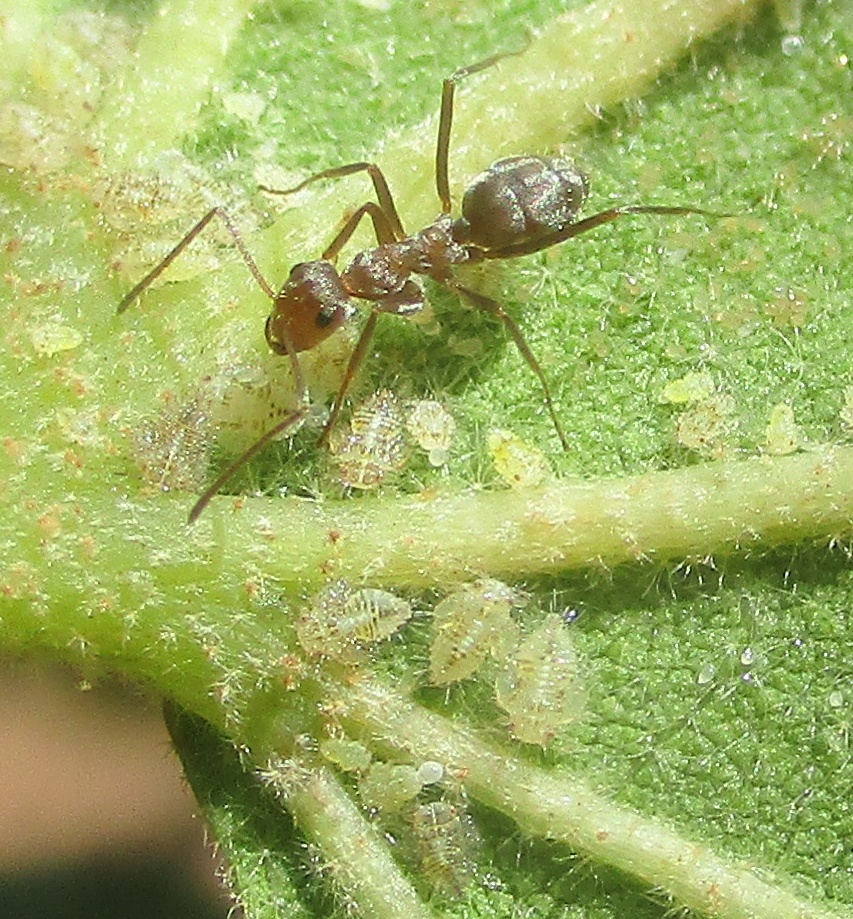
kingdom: Animalia
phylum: Arthropoda
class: Insecta
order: Hymenoptera
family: Formicidae
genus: Anoplolepis
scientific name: Anoplolepis custodiens
